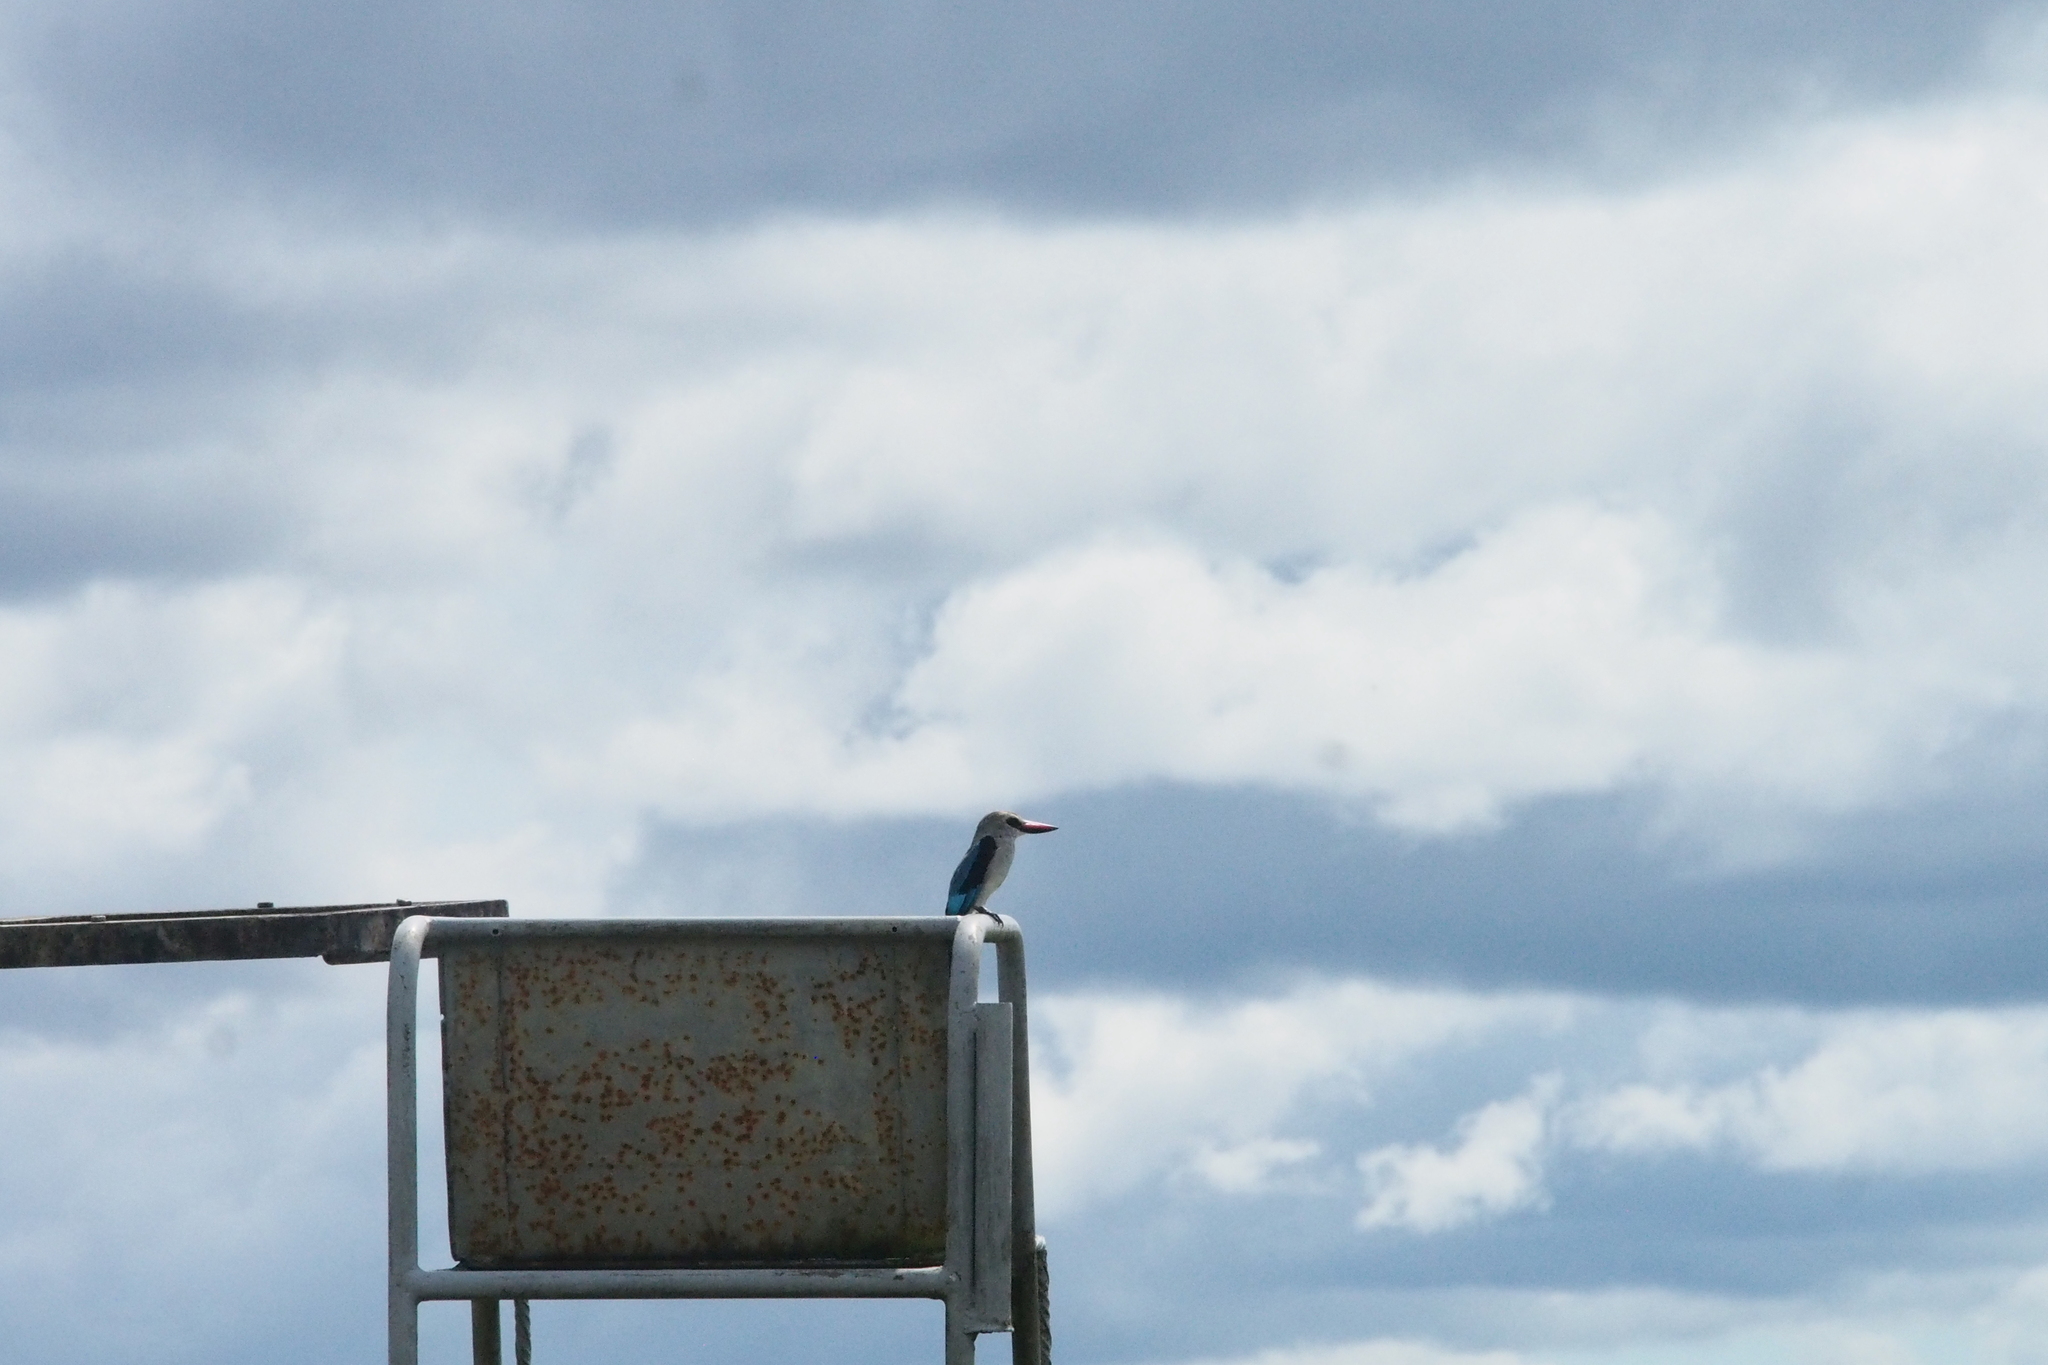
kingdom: Animalia
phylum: Chordata
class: Aves
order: Coraciiformes
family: Alcedinidae
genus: Halcyon
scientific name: Halcyon senegalensis
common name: Woodland kingfisher
